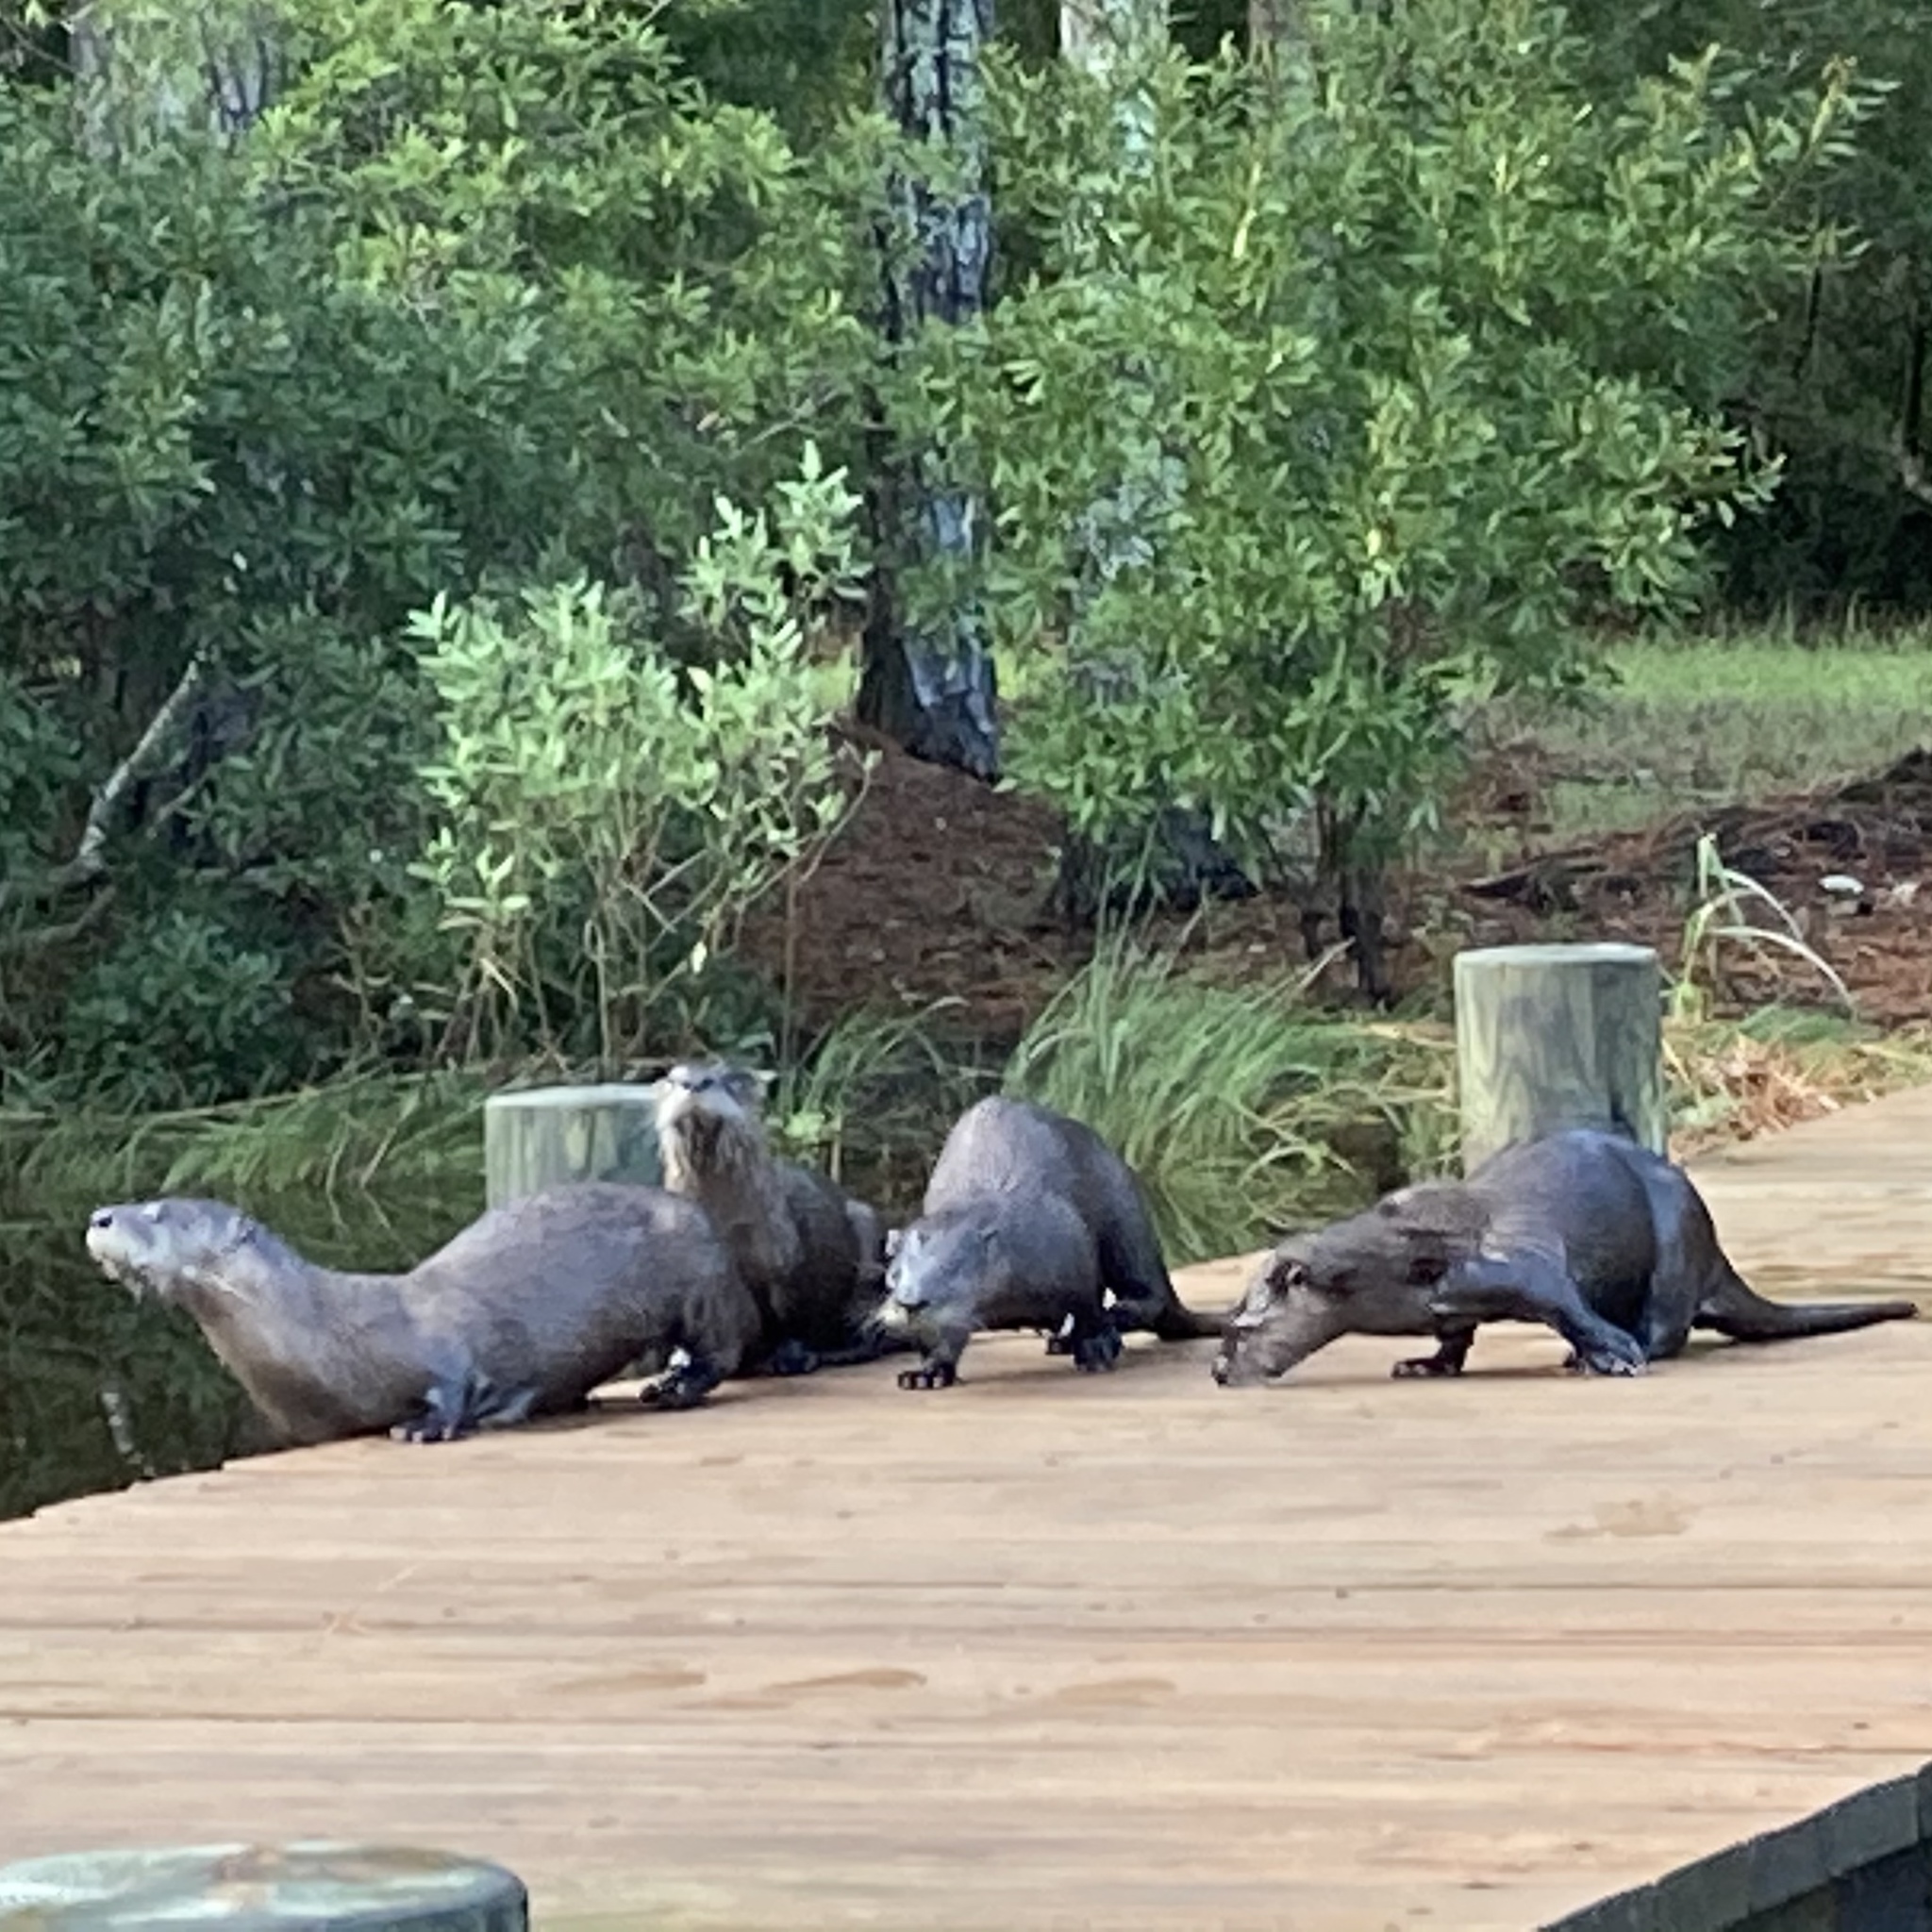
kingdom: Animalia
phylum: Chordata
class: Mammalia
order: Carnivora
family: Mustelidae
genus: Lontra
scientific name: Lontra canadensis
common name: North american river otter
